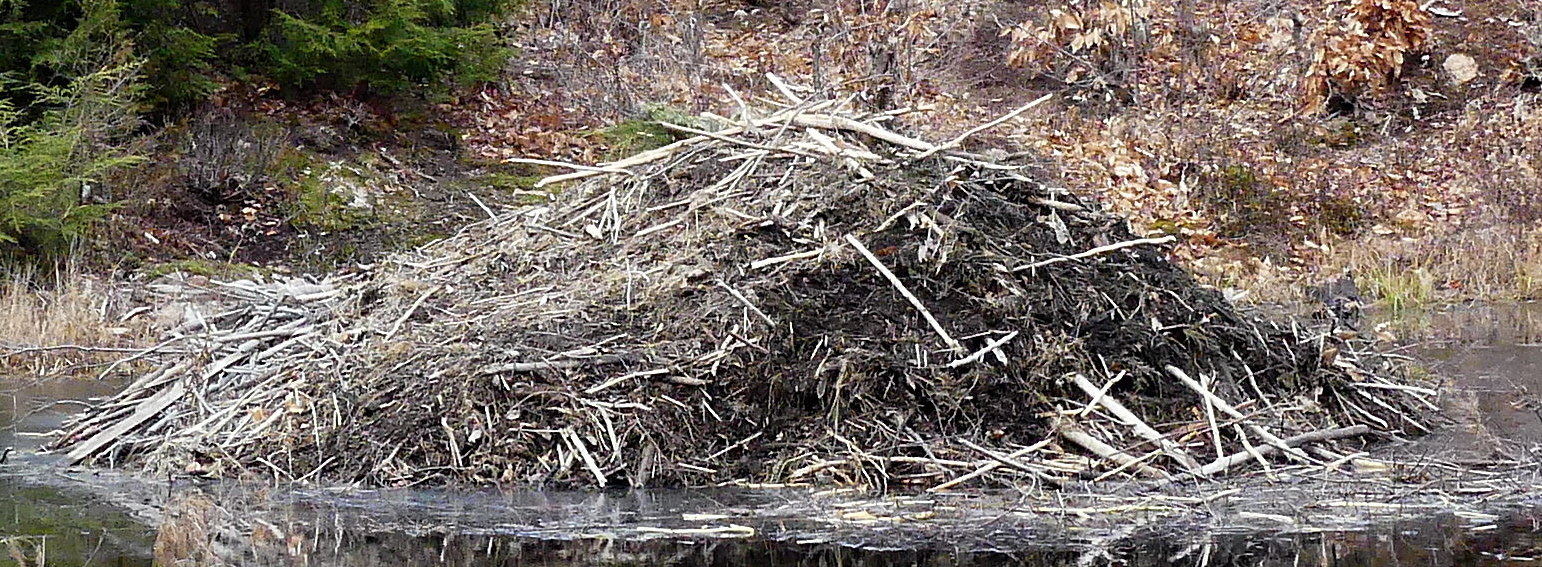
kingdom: Animalia
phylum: Chordata
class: Mammalia
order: Rodentia
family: Castoridae
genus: Castor
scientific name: Castor canadensis
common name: American beaver
